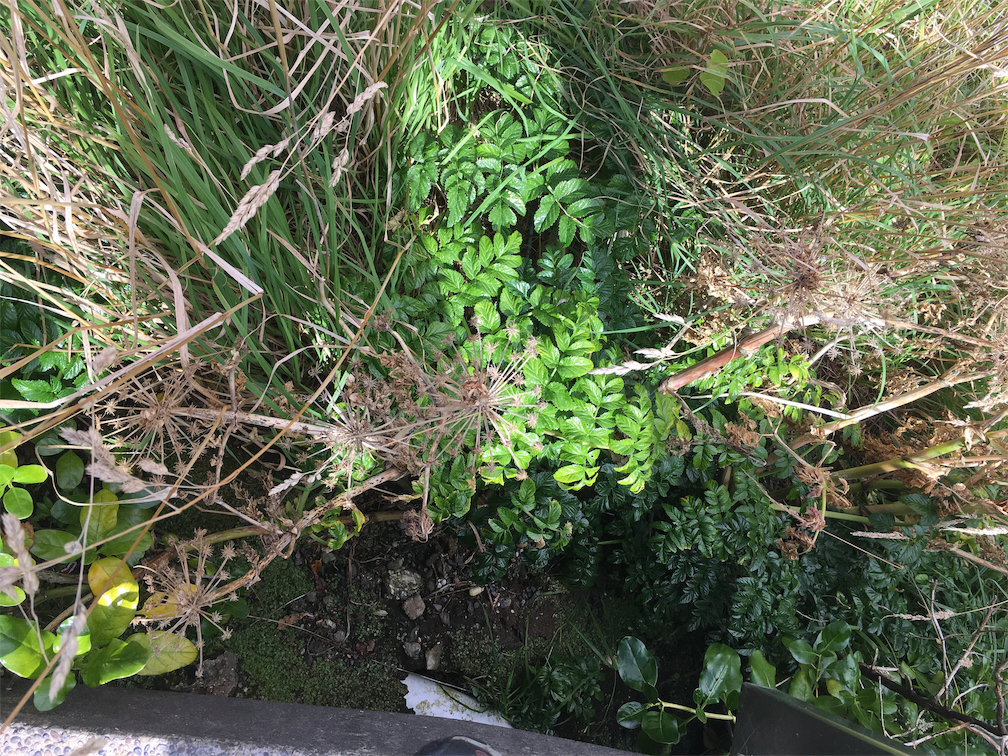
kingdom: Plantae
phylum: Tracheophyta
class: Magnoliopsida
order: Apiales
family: Apiaceae
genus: Angelica
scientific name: Angelica pachycarpa
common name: Portuguese angelica
